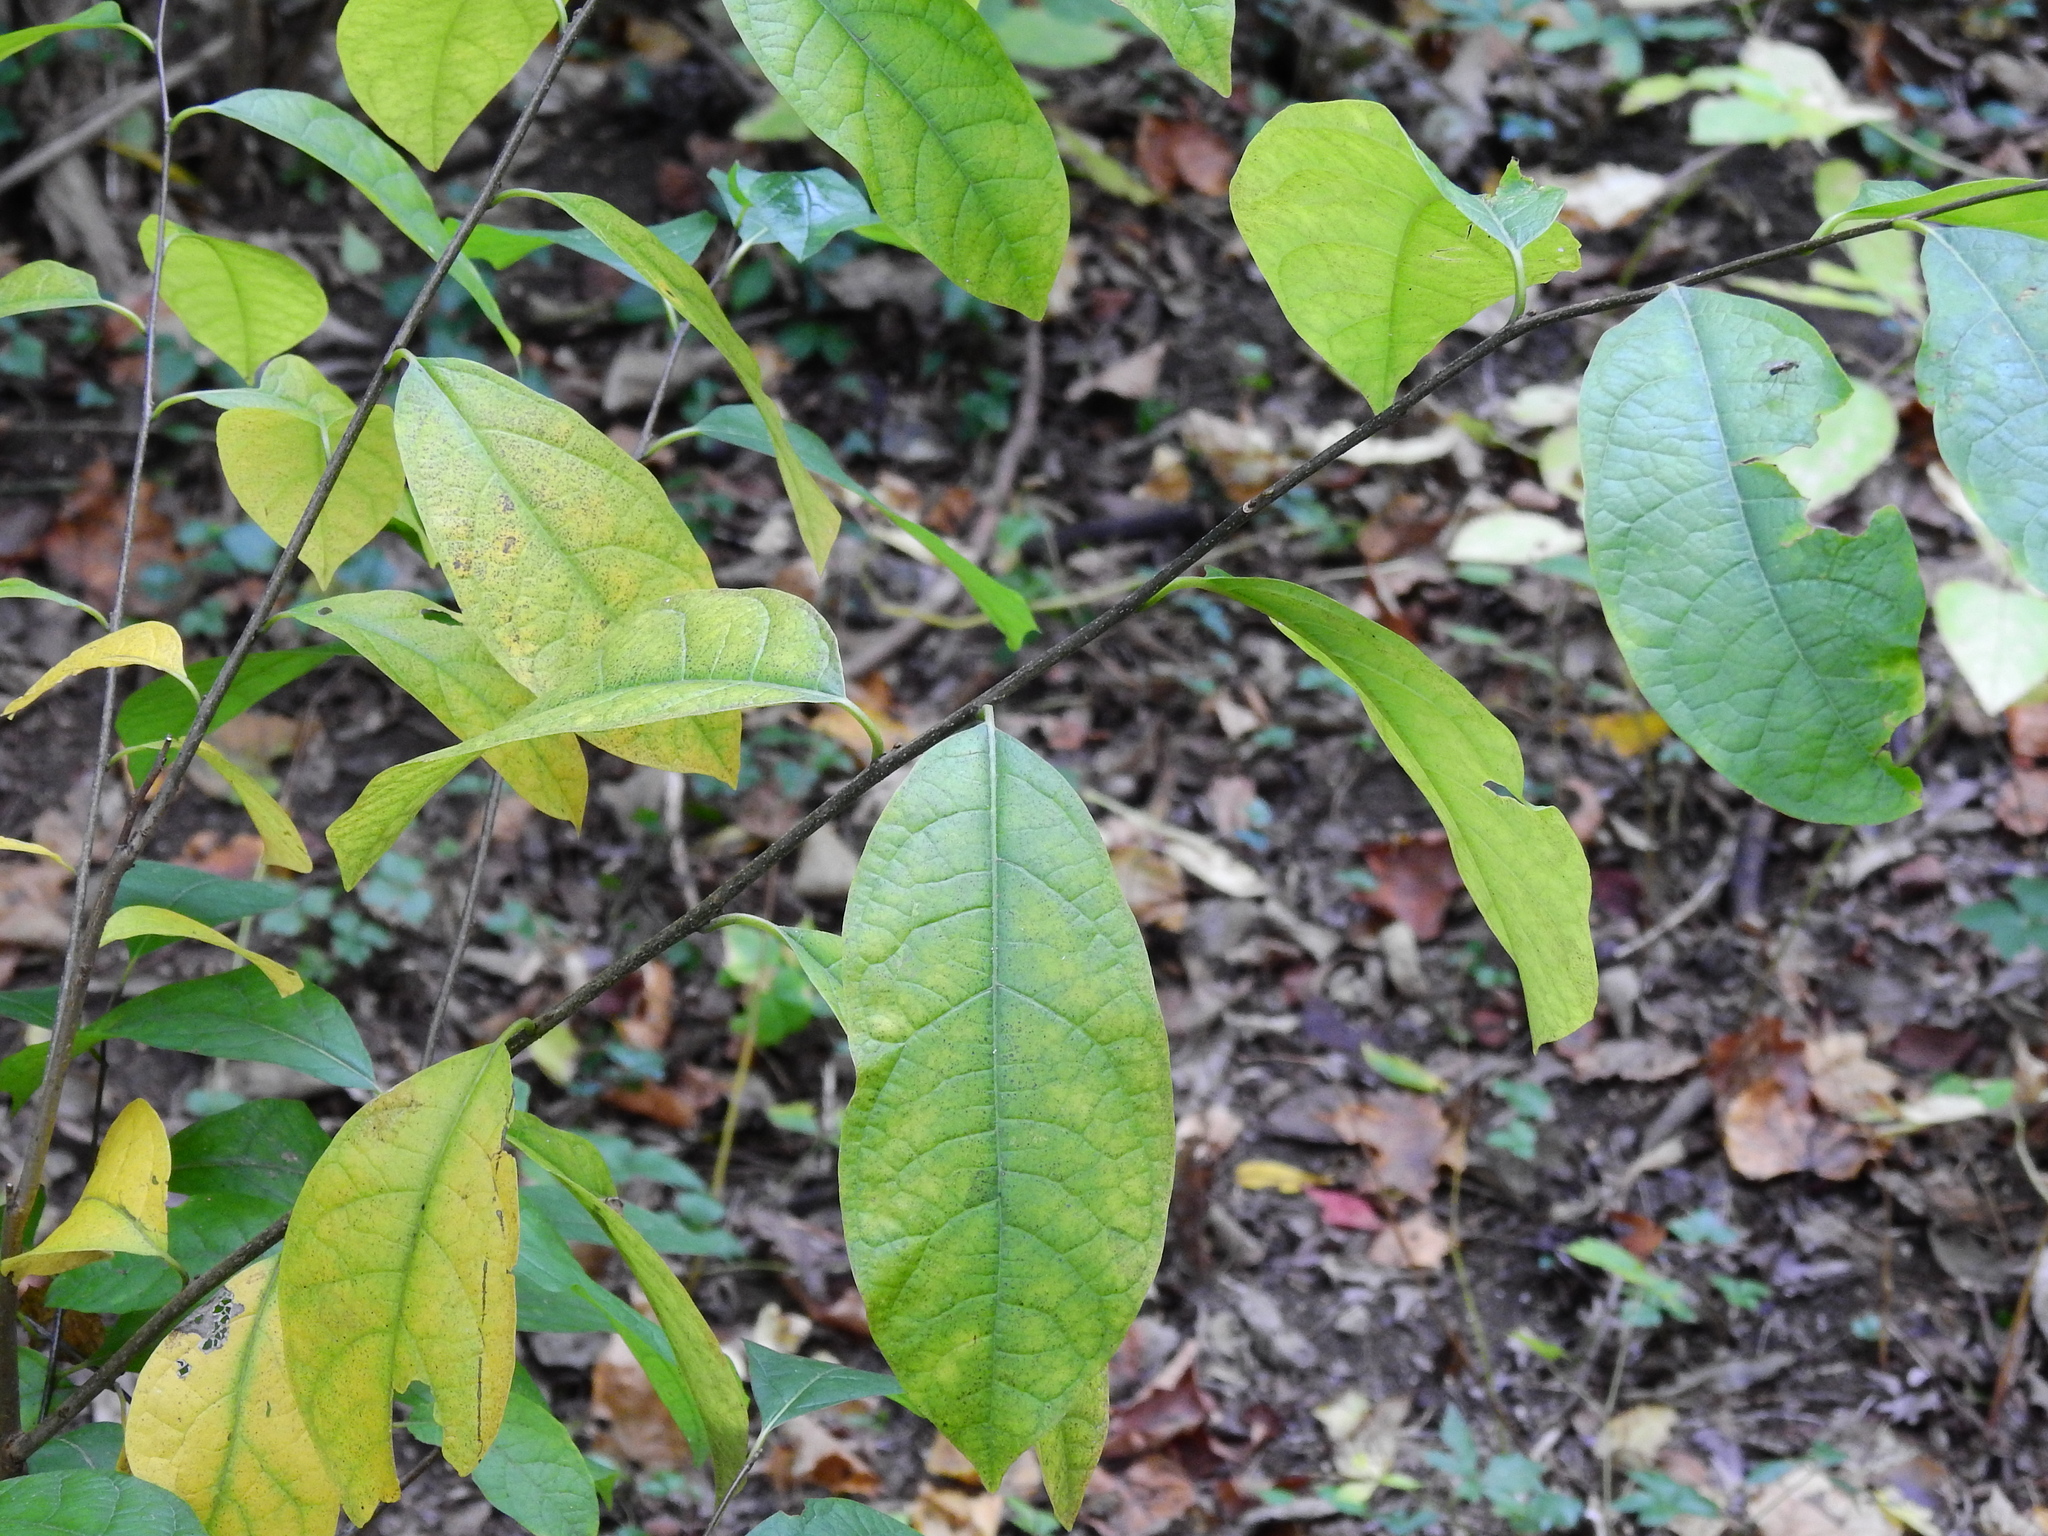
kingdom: Plantae
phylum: Tracheophyta
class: Magnoliopsida
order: Laurales
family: Lauraceae
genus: Lindera
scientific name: Lindera benzoin
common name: Spicebush
